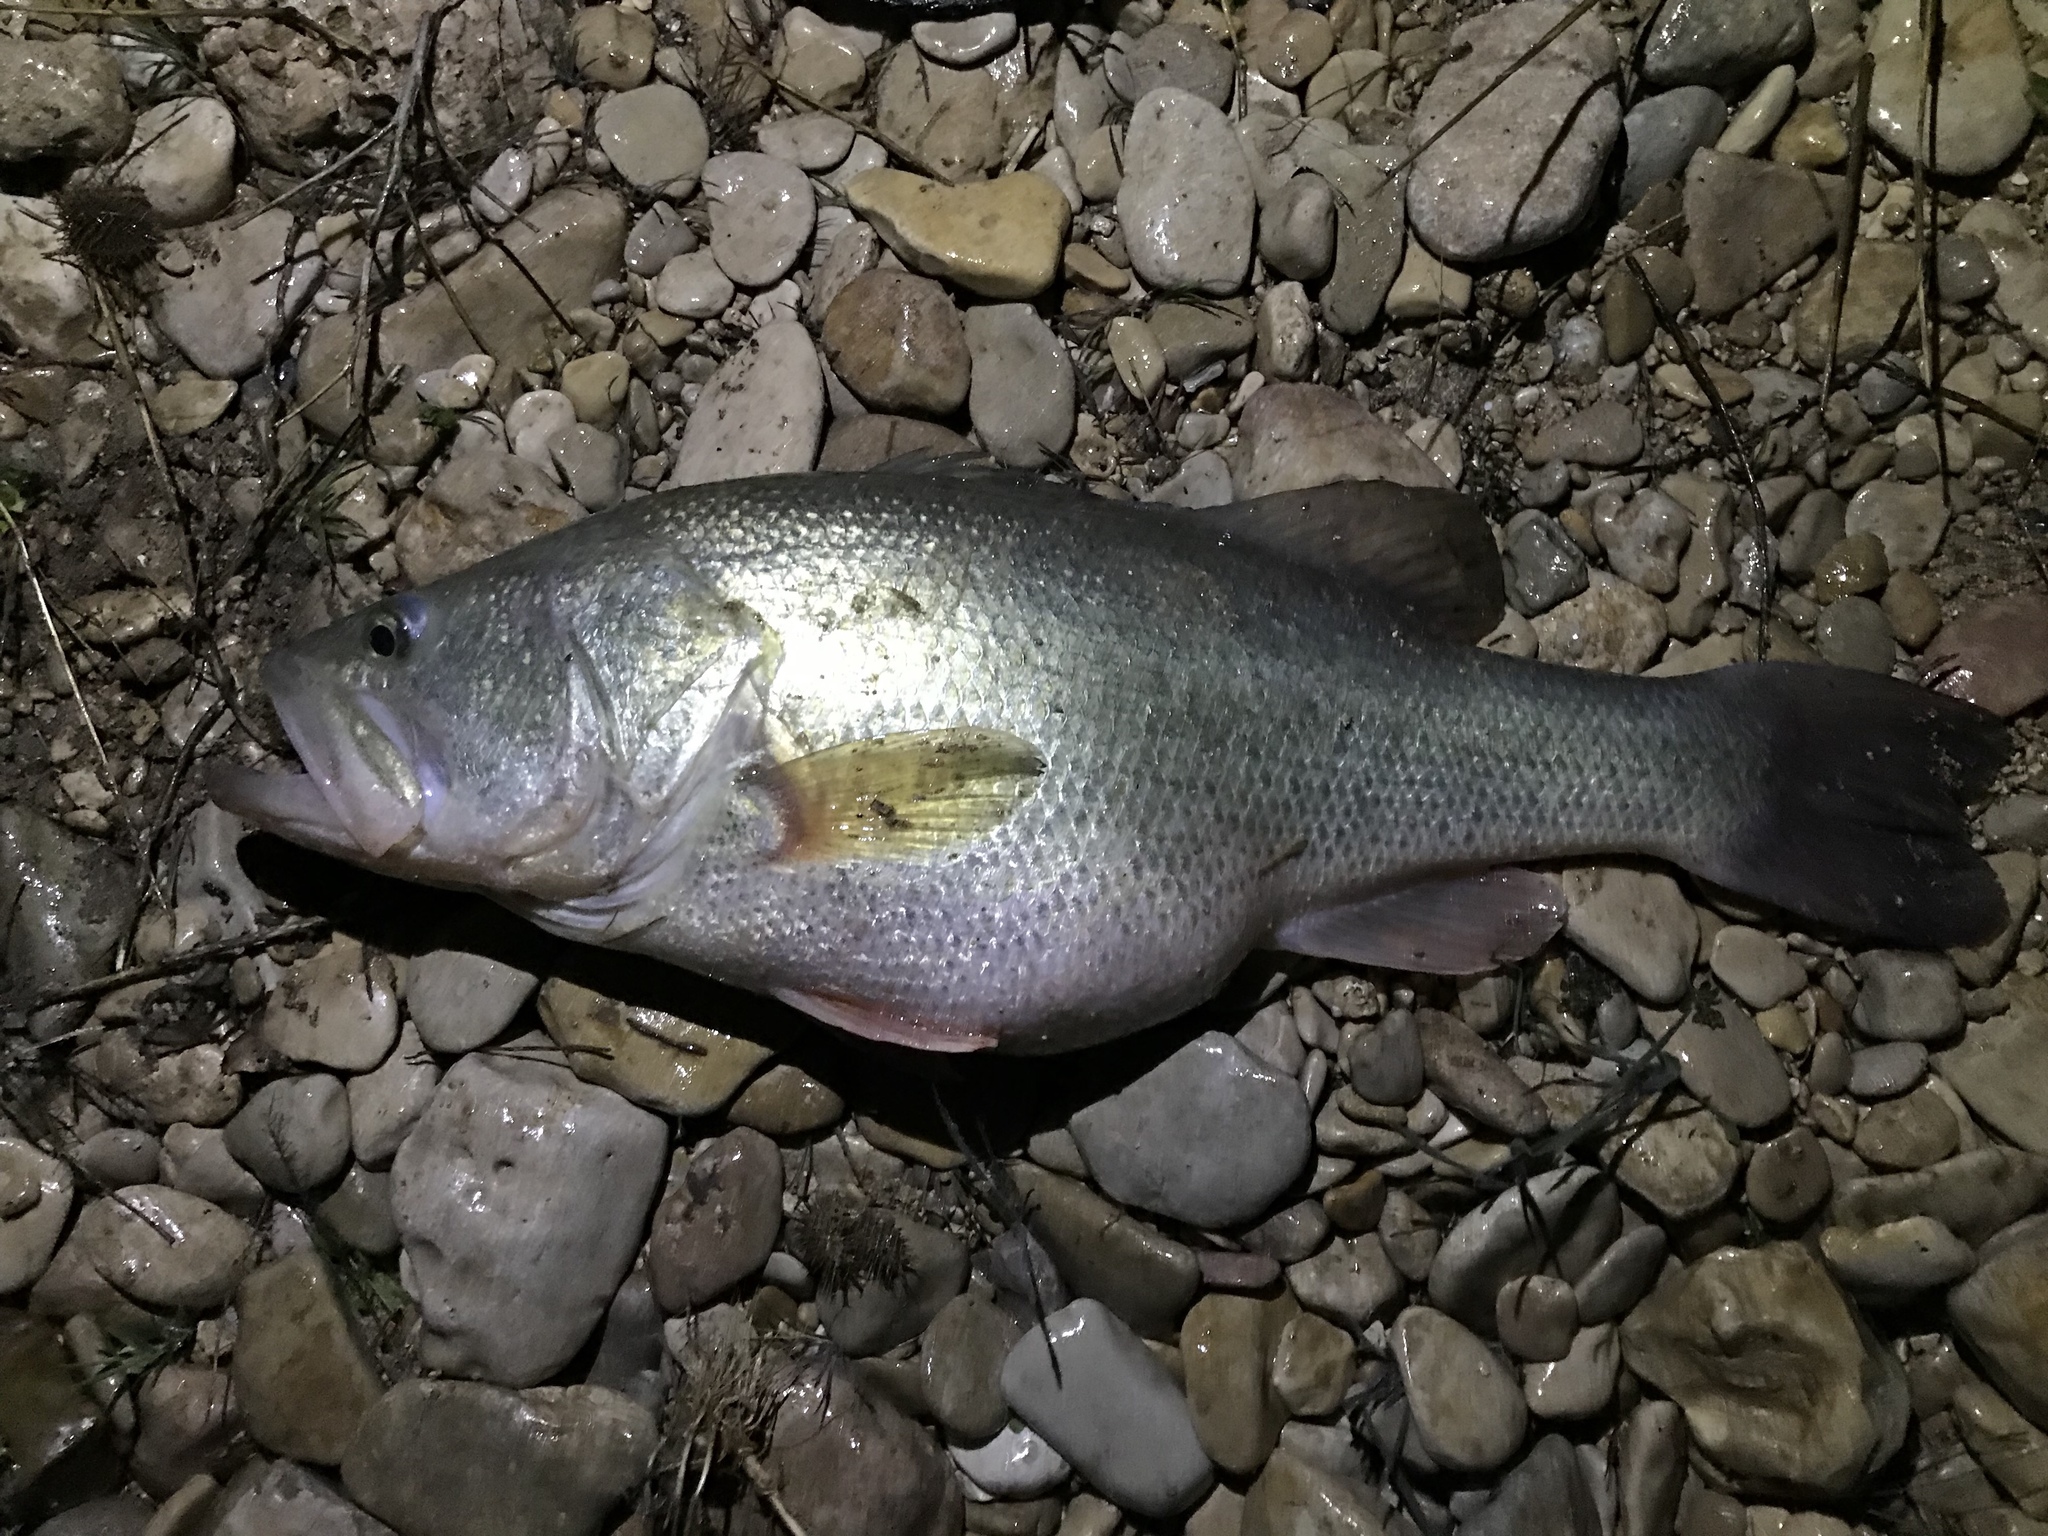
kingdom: Animalia
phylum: Chordata
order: Perciformes
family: Centrarchidae
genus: Micropterus
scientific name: Micropterus
